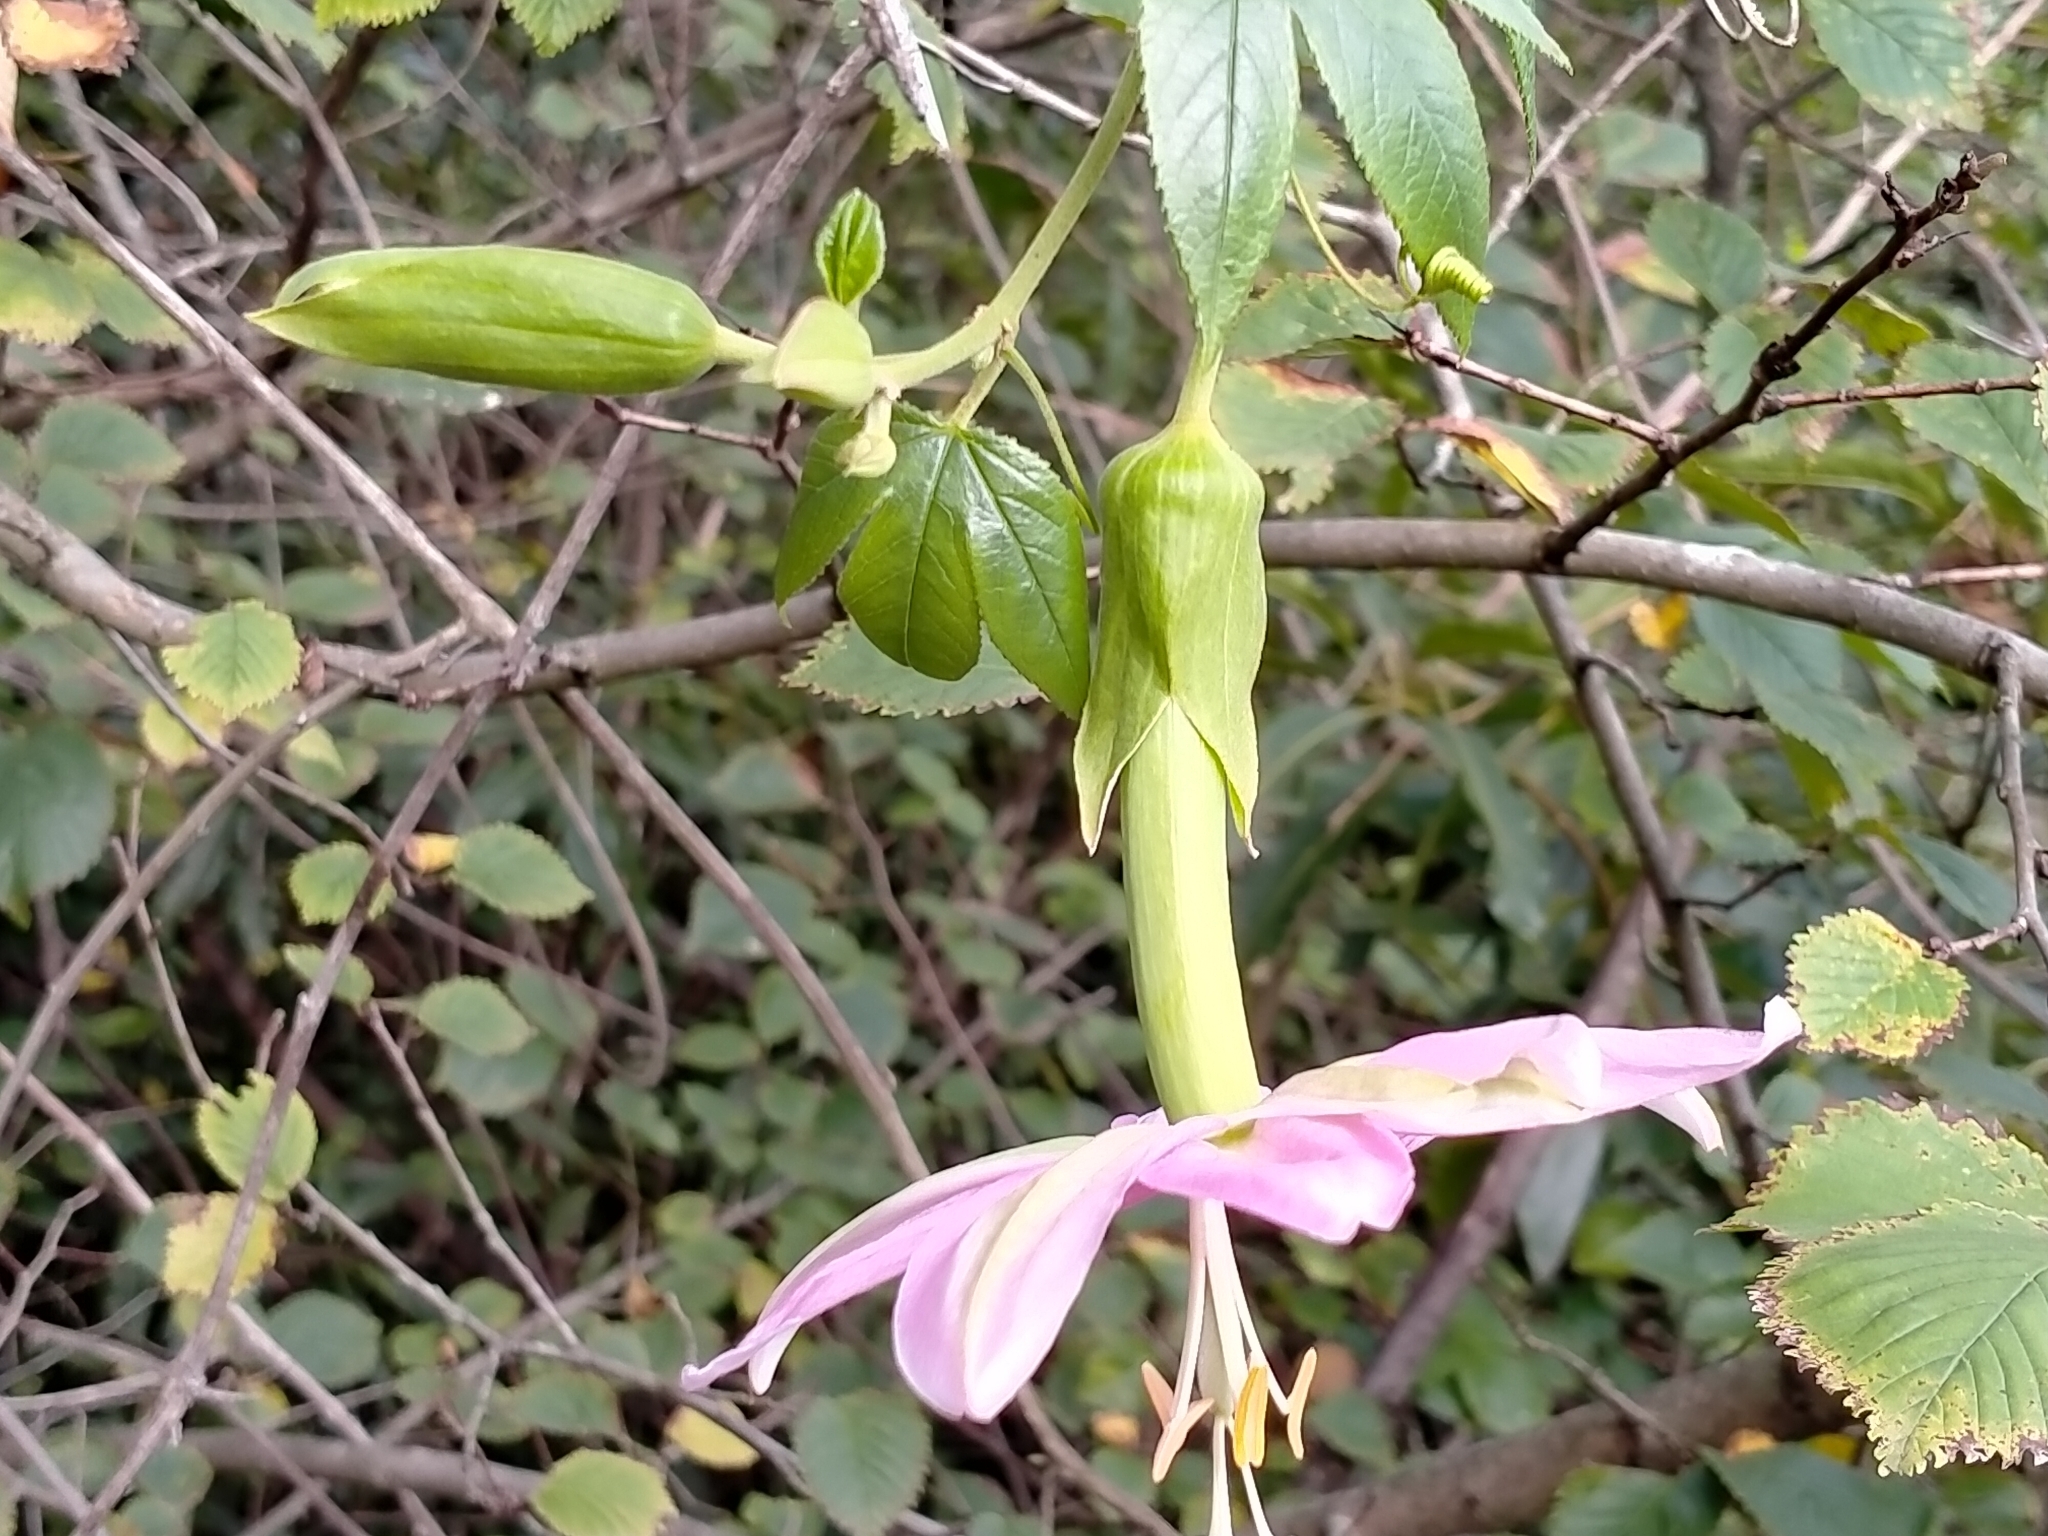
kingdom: Plantae
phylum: Tracheophyta
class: Magnoliopsida
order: Malpighiales
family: Passifloraceae
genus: Passiflora
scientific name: Passiflora tarminiana
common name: Banana poka
